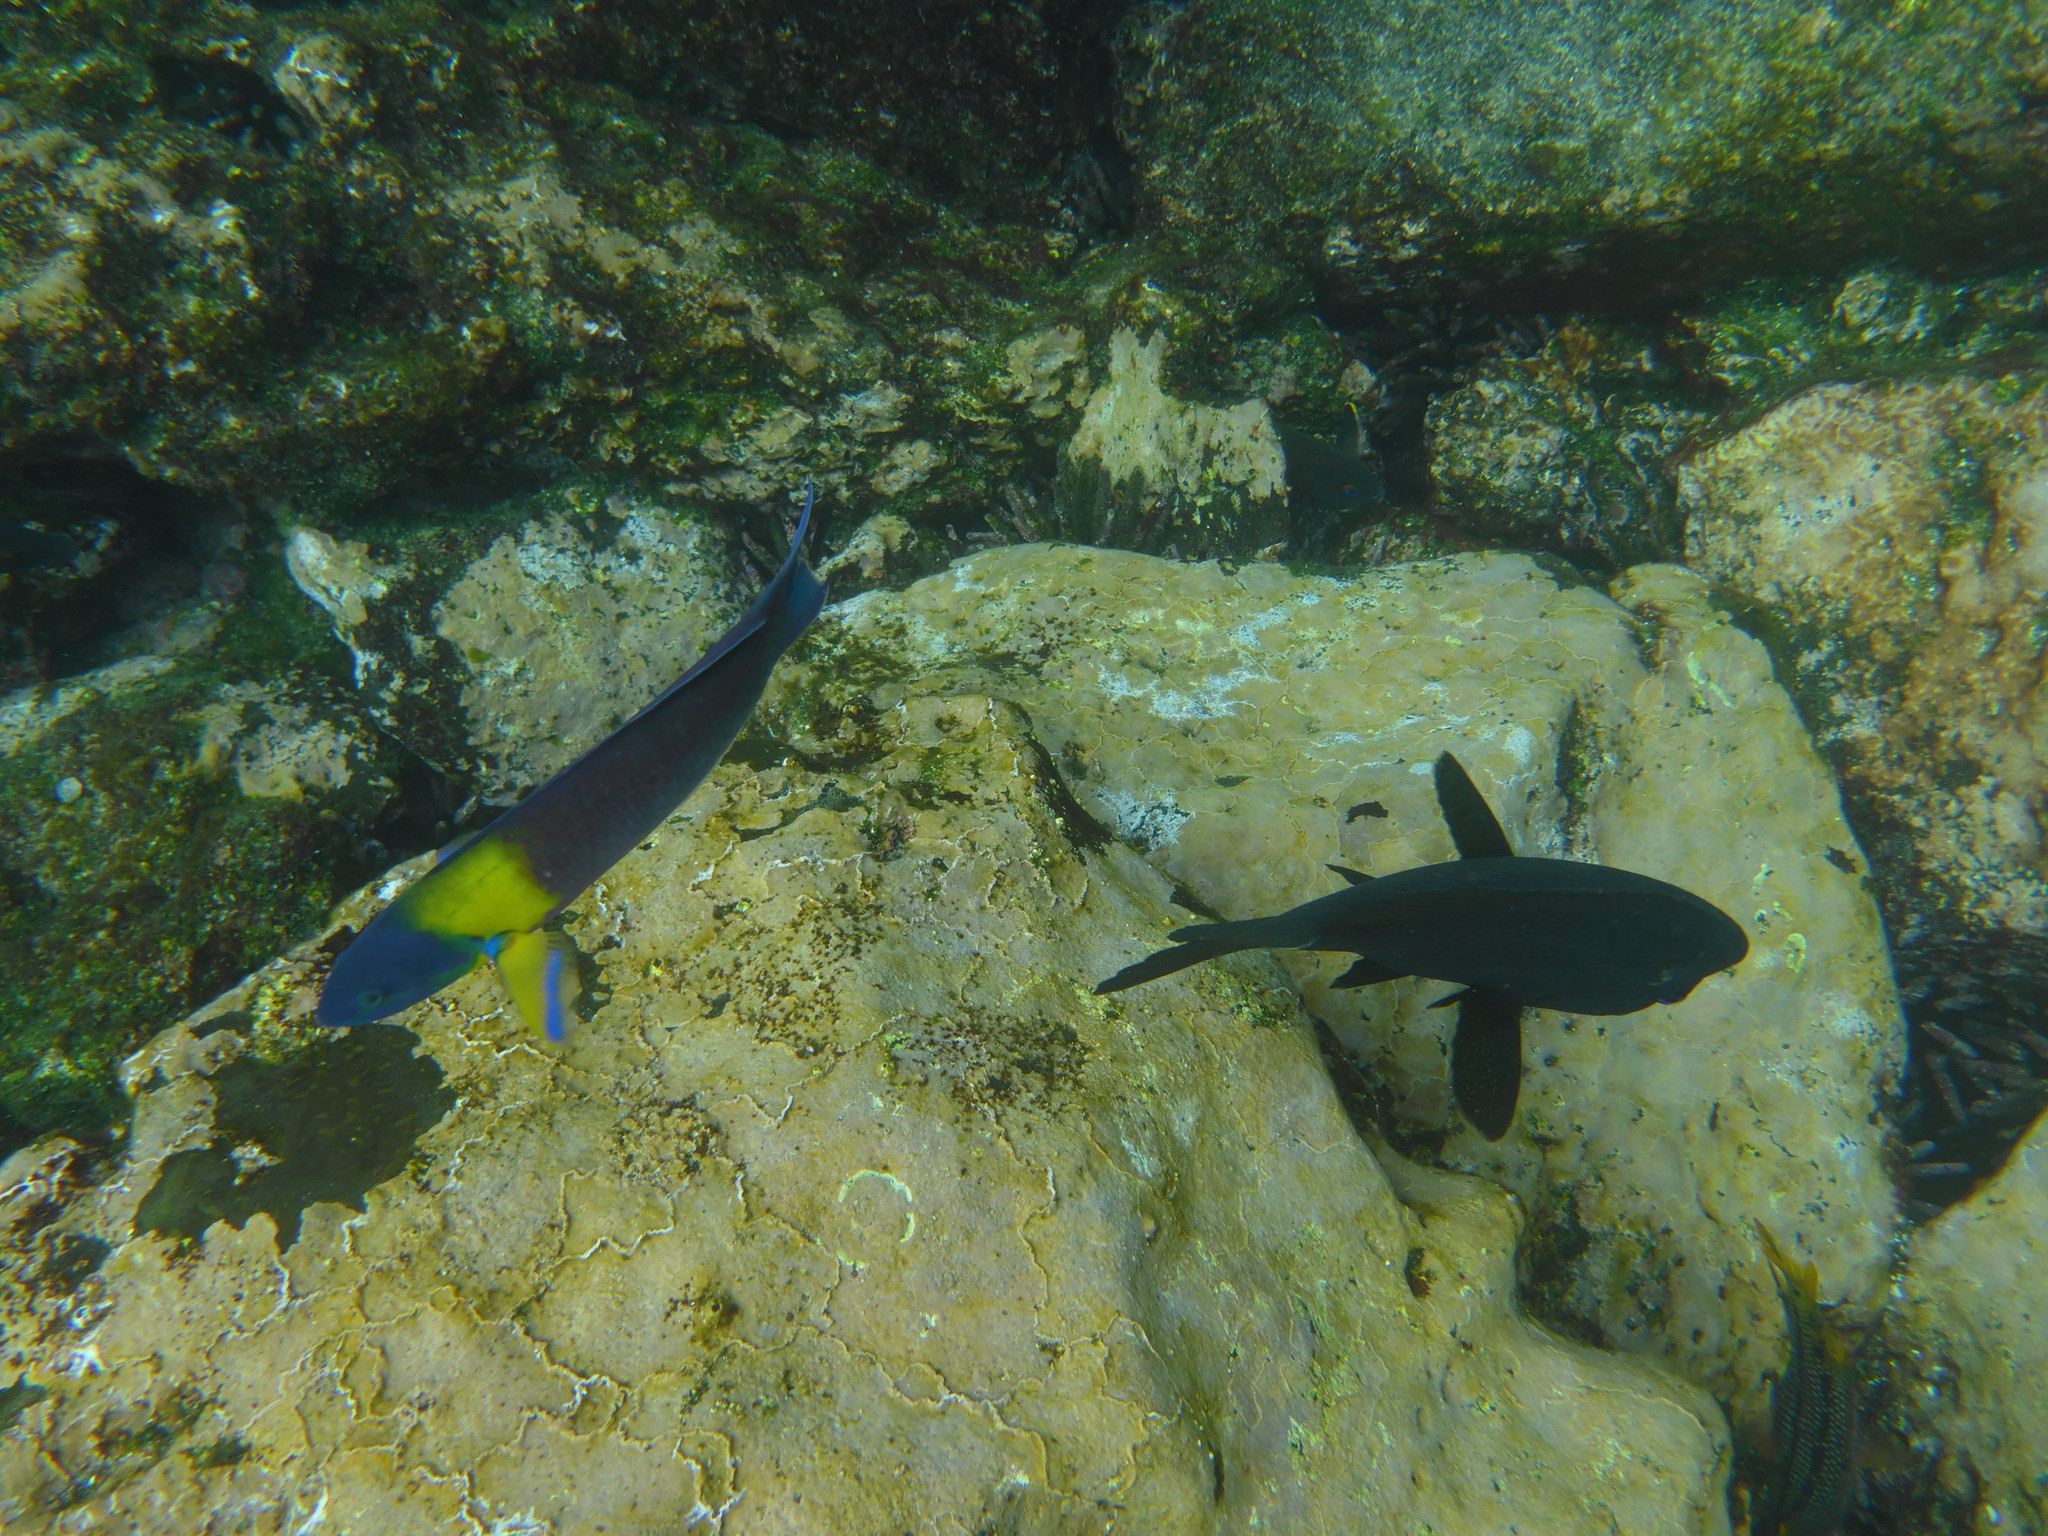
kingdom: Animalia
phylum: Chordata
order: Perciformes
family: Labridae
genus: Thalassoma
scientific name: Thalassoma lucasanum
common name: Cortez rainbow wrasse
